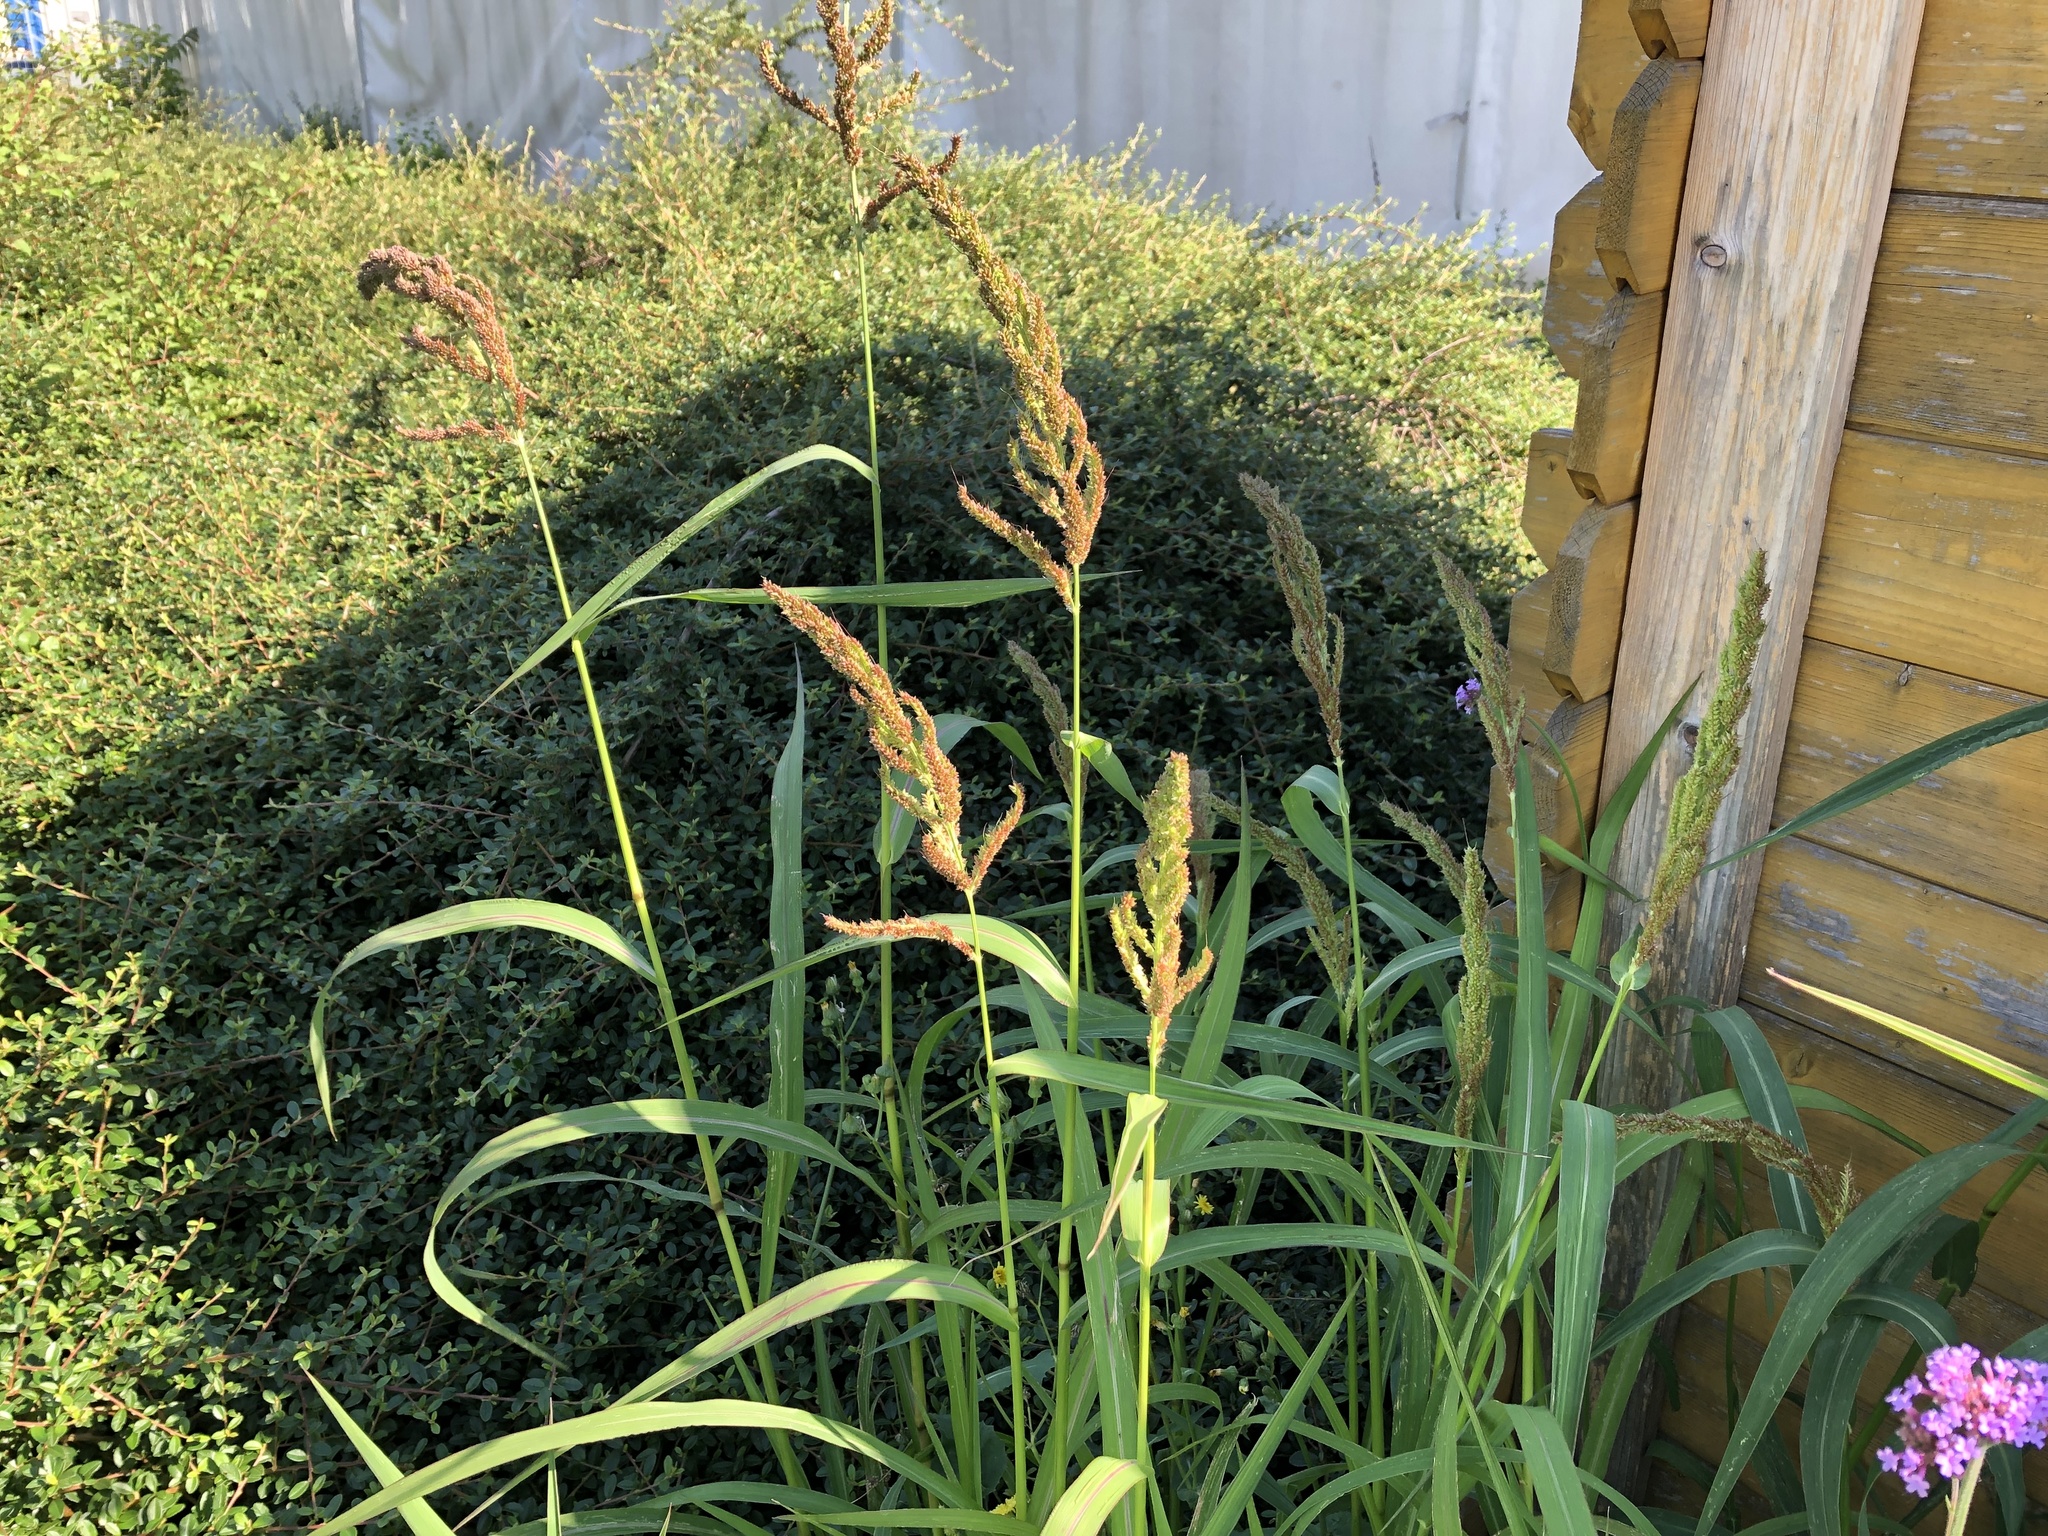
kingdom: Plantae
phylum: Tracheophyta
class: Liliopsida
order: Poales
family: Poaceae
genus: Echinochloa
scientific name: Echinochloa crus-galli
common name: Cockspur
